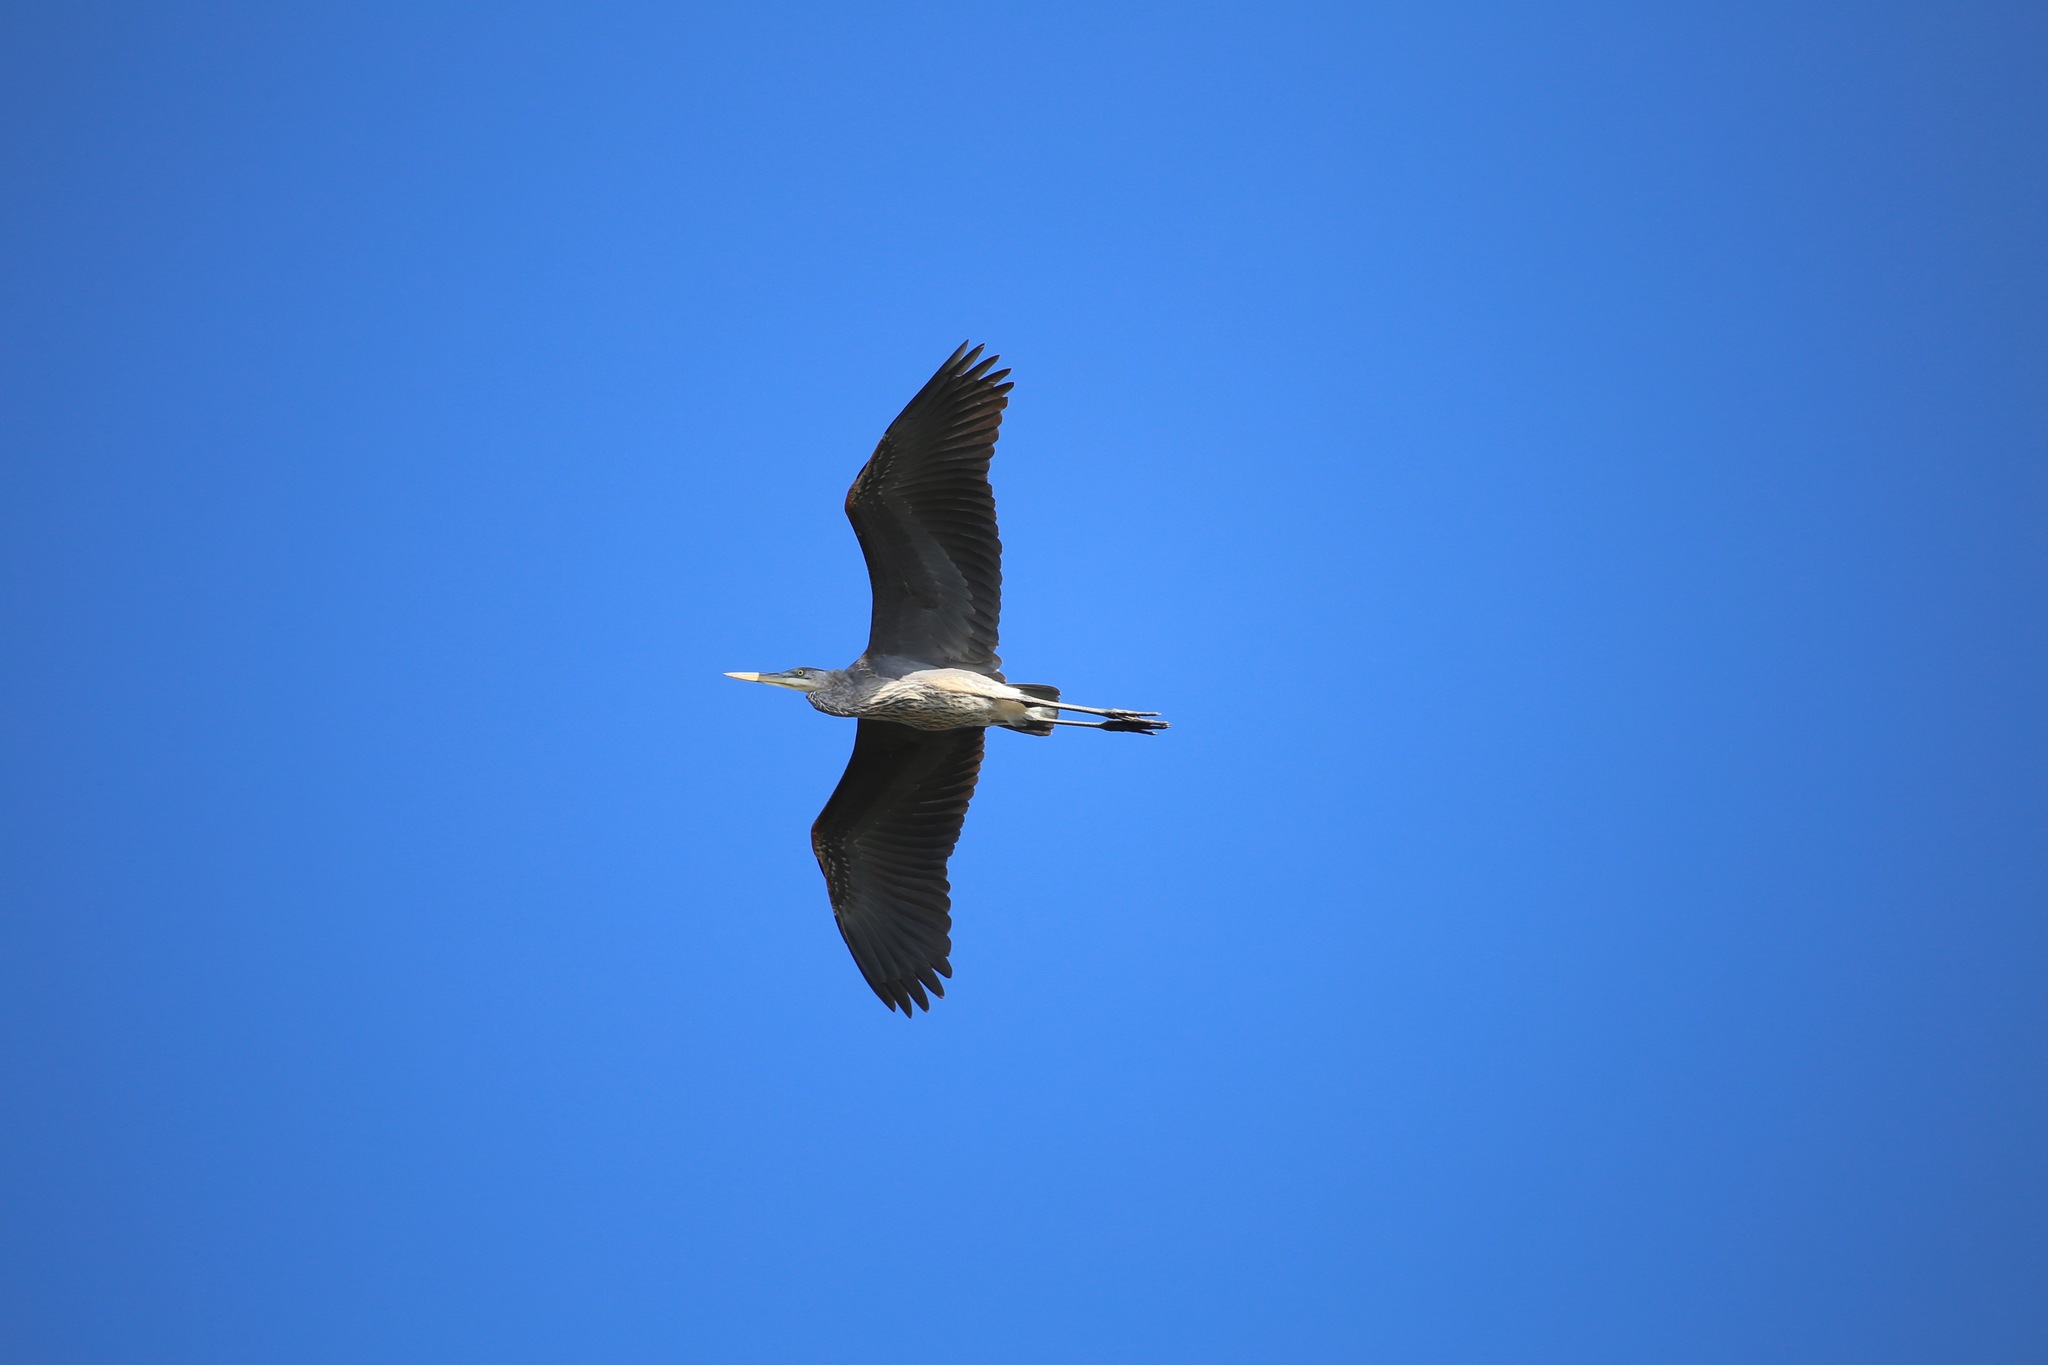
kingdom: Animalia
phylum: Chordata
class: Aves
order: Pelecaniformes
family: Ardeidae
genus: Ardea
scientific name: Ardea herodias
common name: Great blue heron
